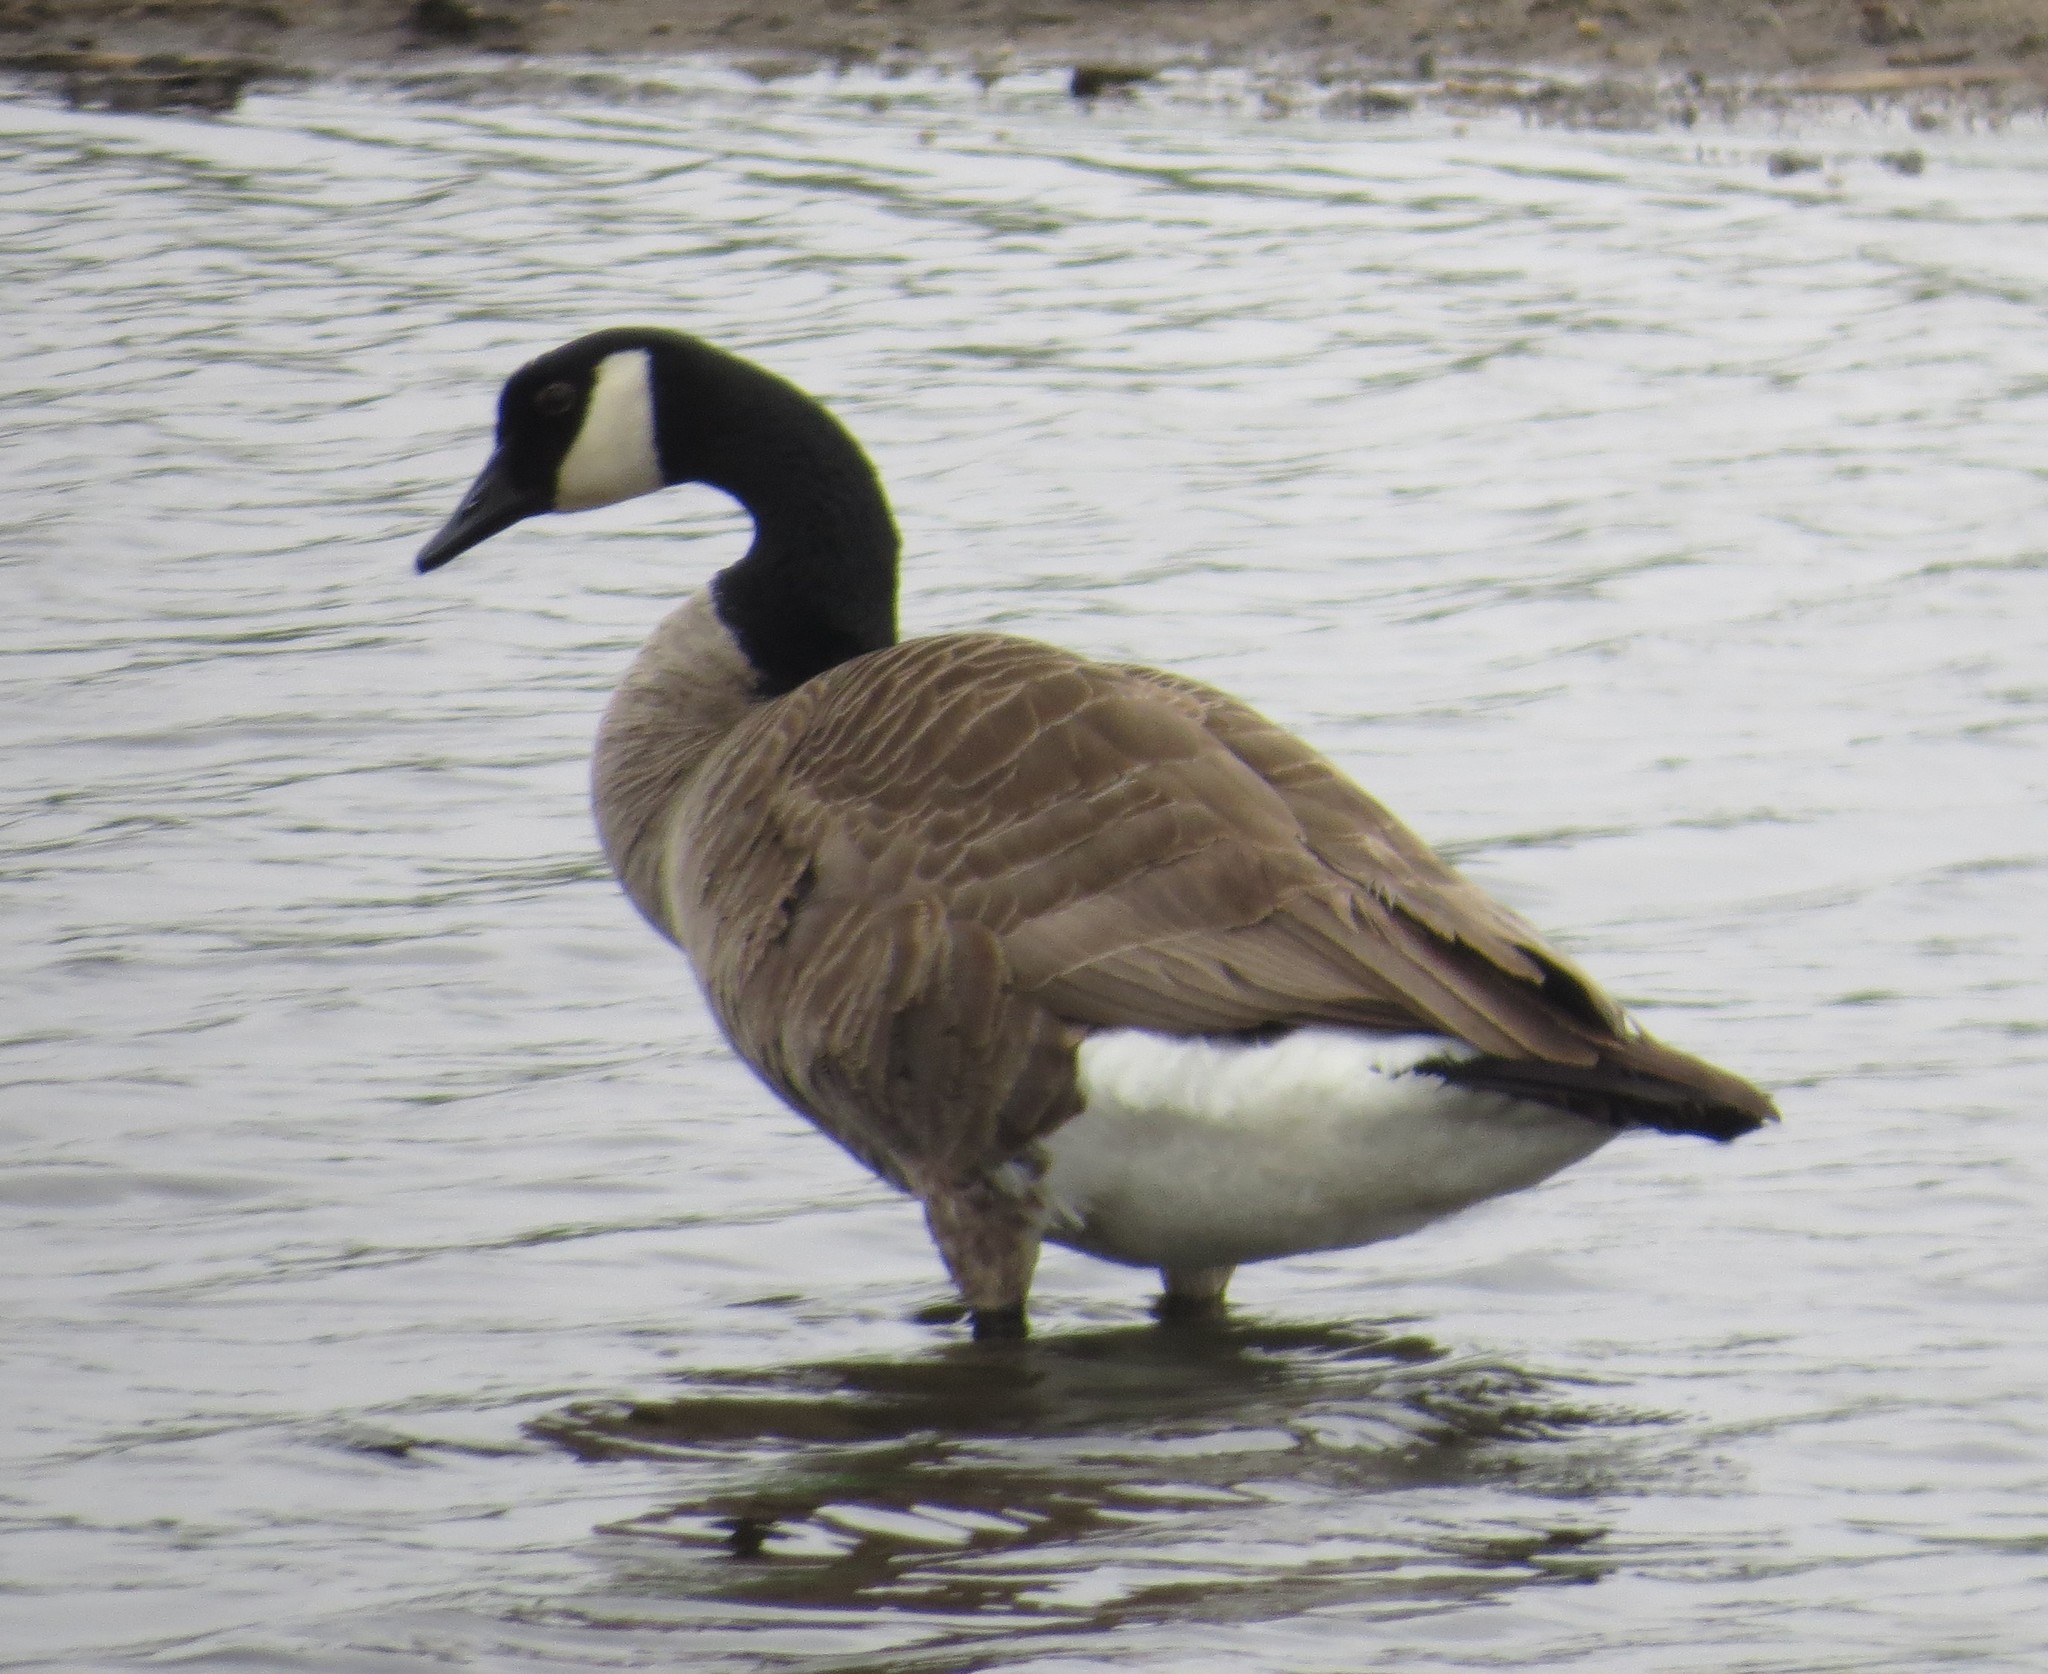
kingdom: Animalia
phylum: Chordata
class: Aves
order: Anseriformes
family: Anatidae
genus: Branta
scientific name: Branta canadensis
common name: Canada goose
